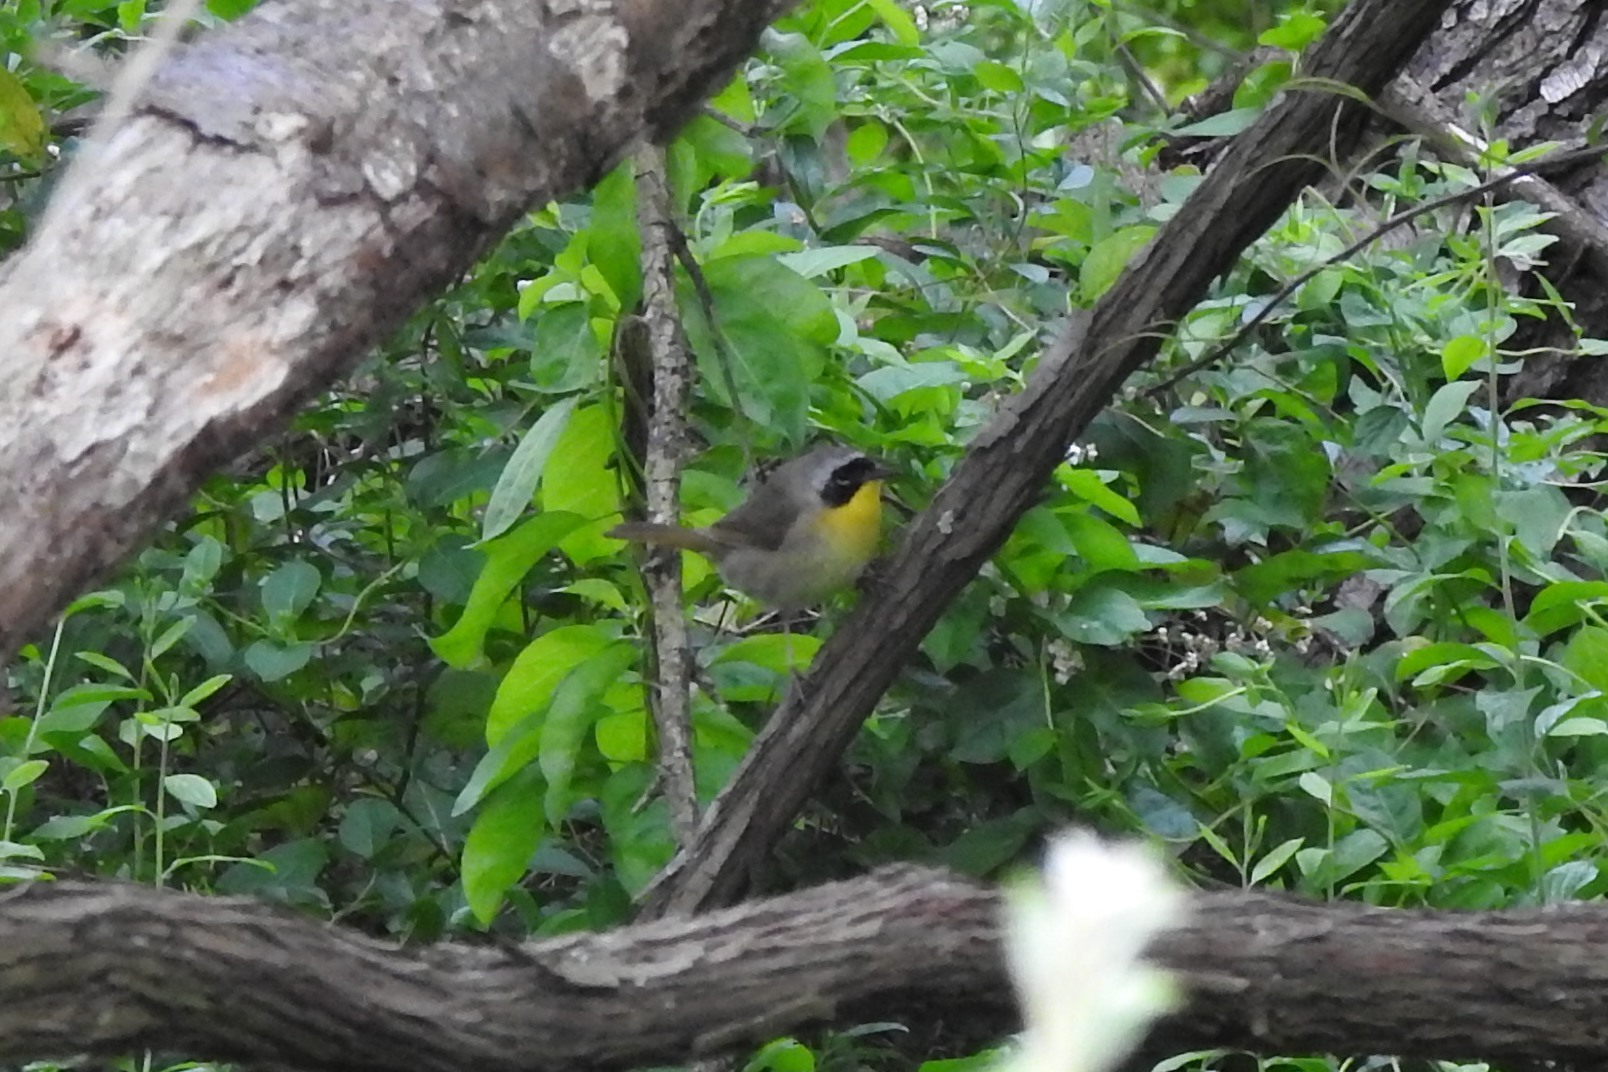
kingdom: Animalia
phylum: Chordata
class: Aves
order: Passeriformes
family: Parulidae
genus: Geothlypis
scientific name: Geothlypis trichas
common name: Common yellowthroat
